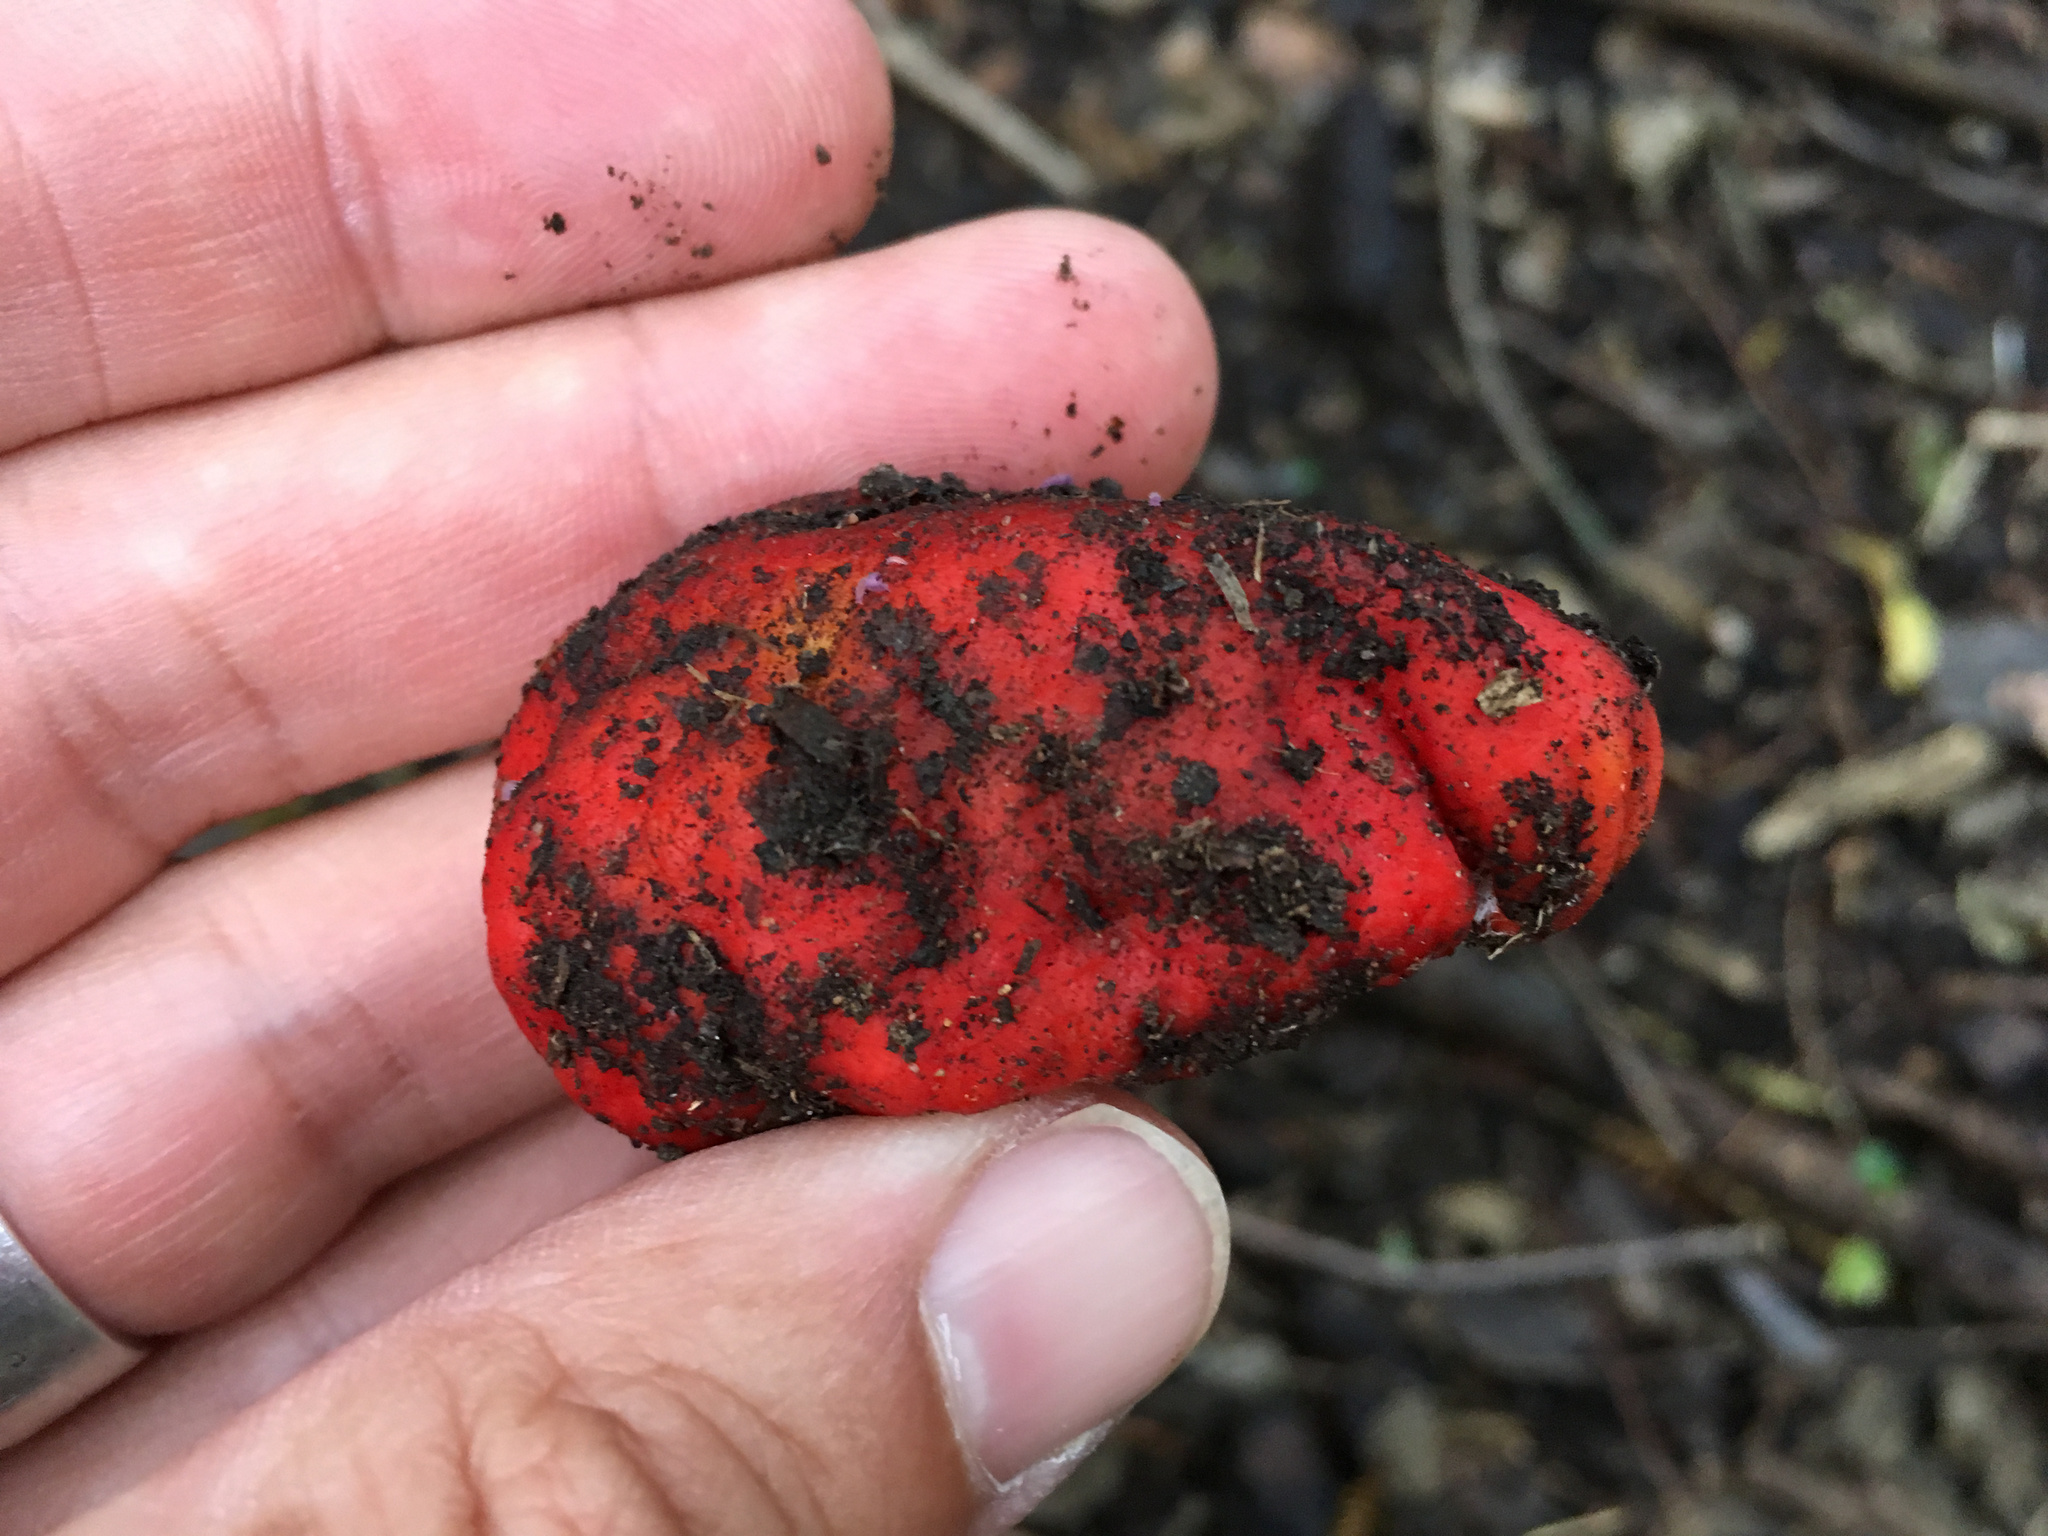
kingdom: Fungi
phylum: Basidiomycota
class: Agaricomycetes
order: Agaricales
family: Strophariaceae
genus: Leratiomyces
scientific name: Leratiomyces erythrocephalus
